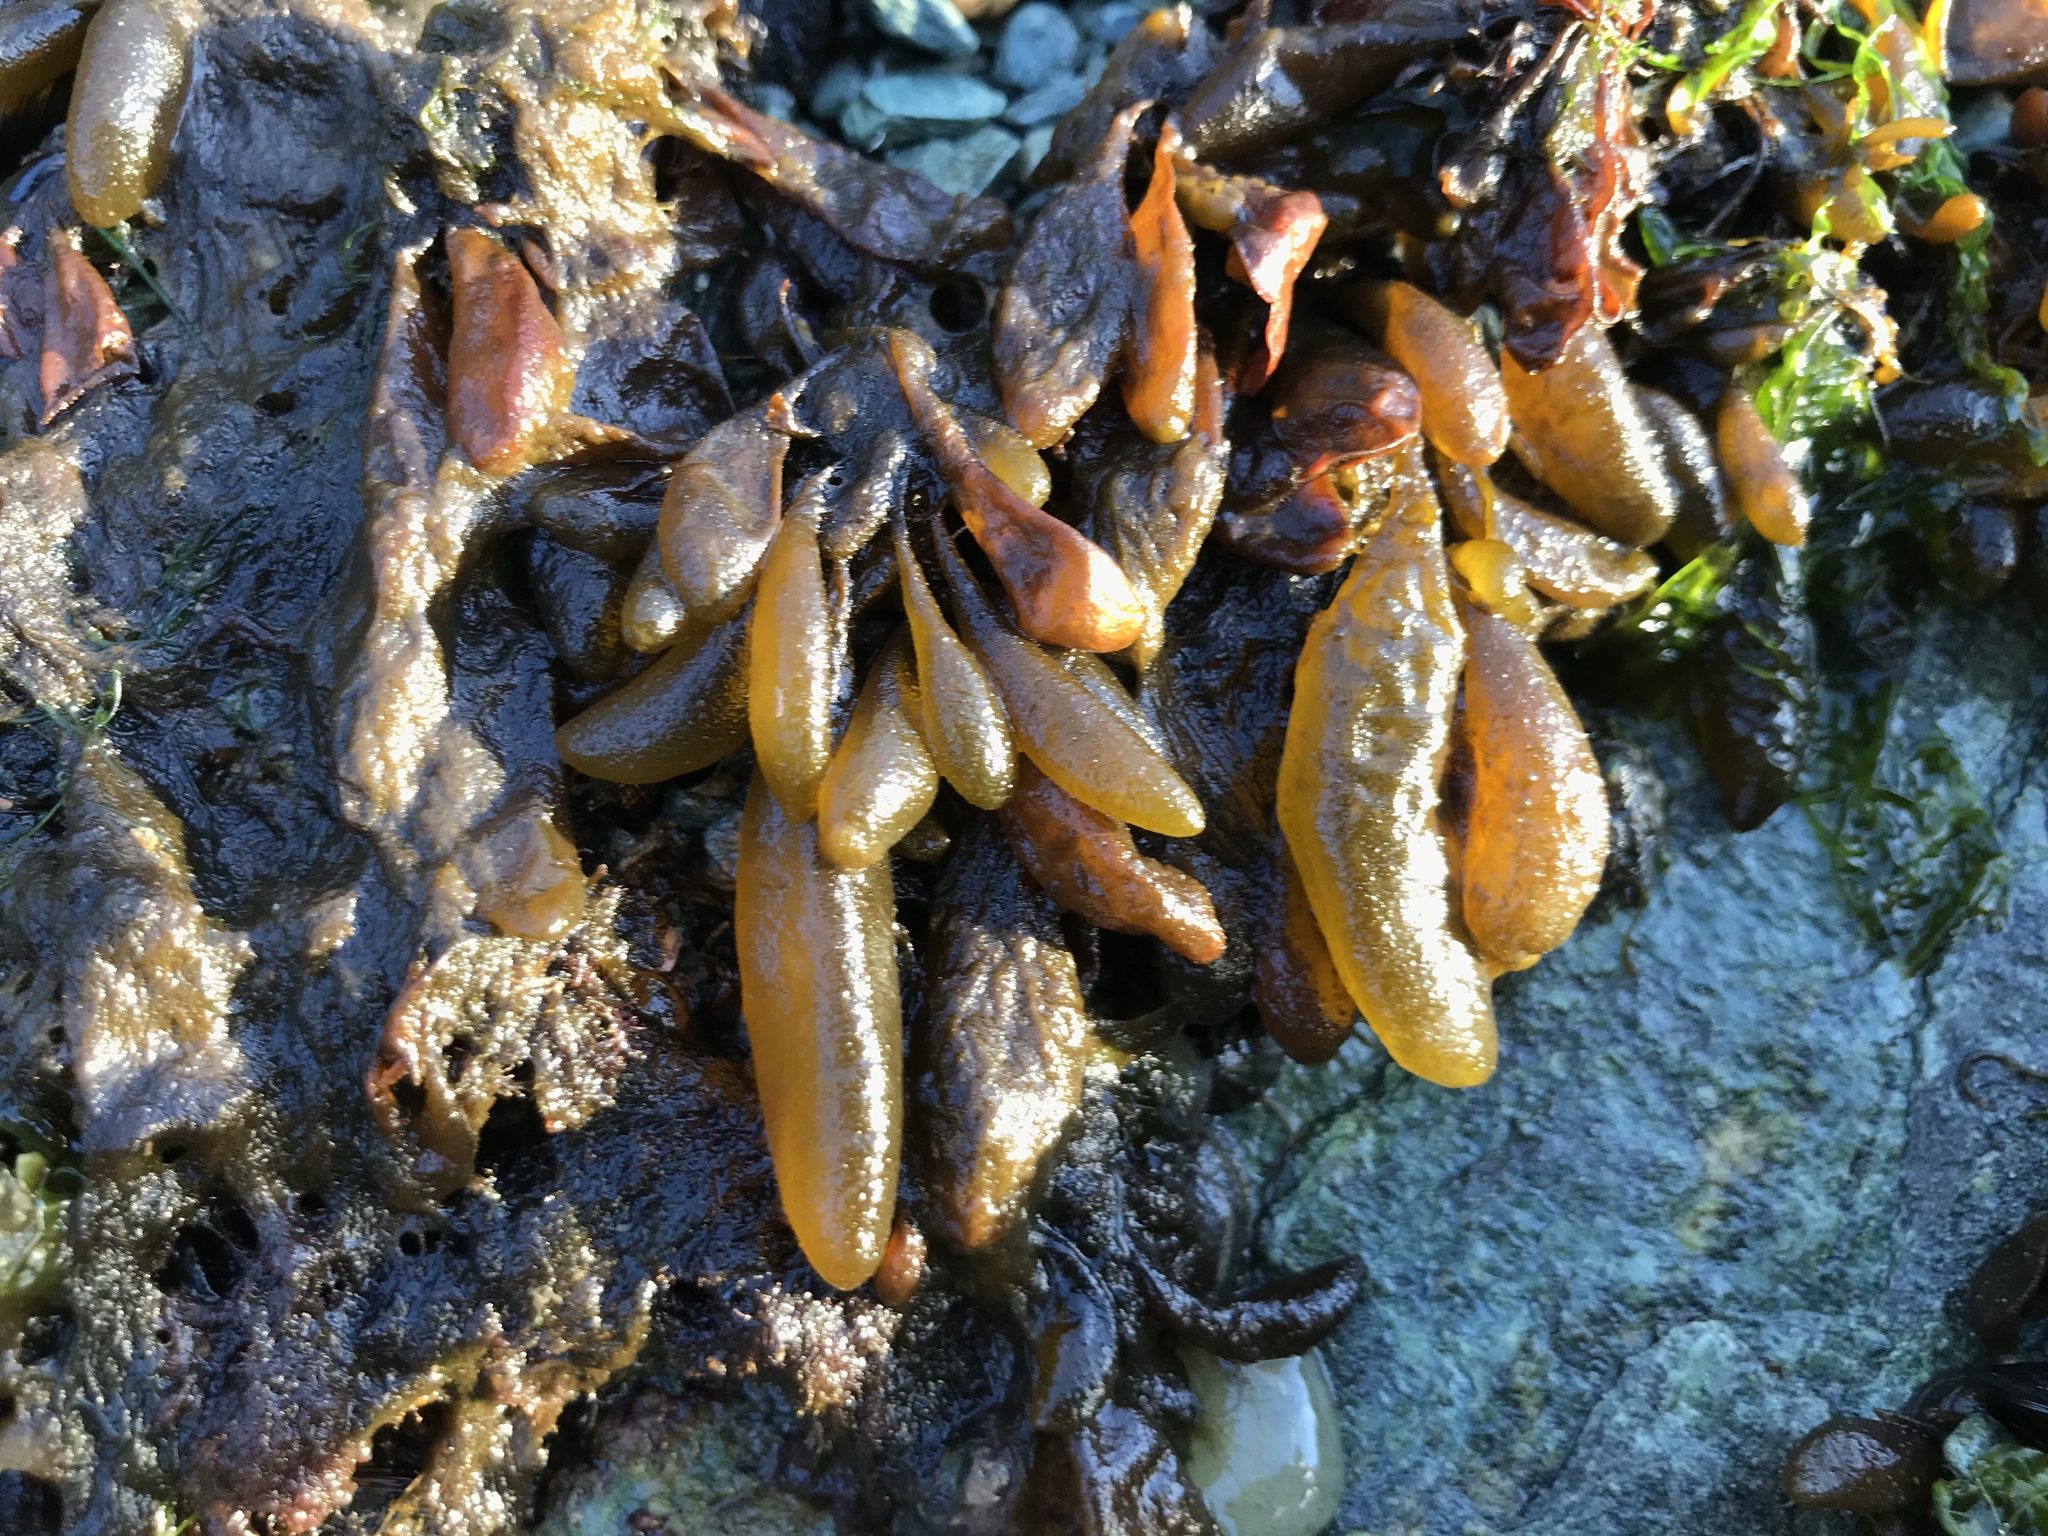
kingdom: Chromista
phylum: Ochrophyta
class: Phaeophyceae
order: Ectocarpales
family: Adenocystaceae
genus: Adenocystis
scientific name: Adenocystis utricularis
